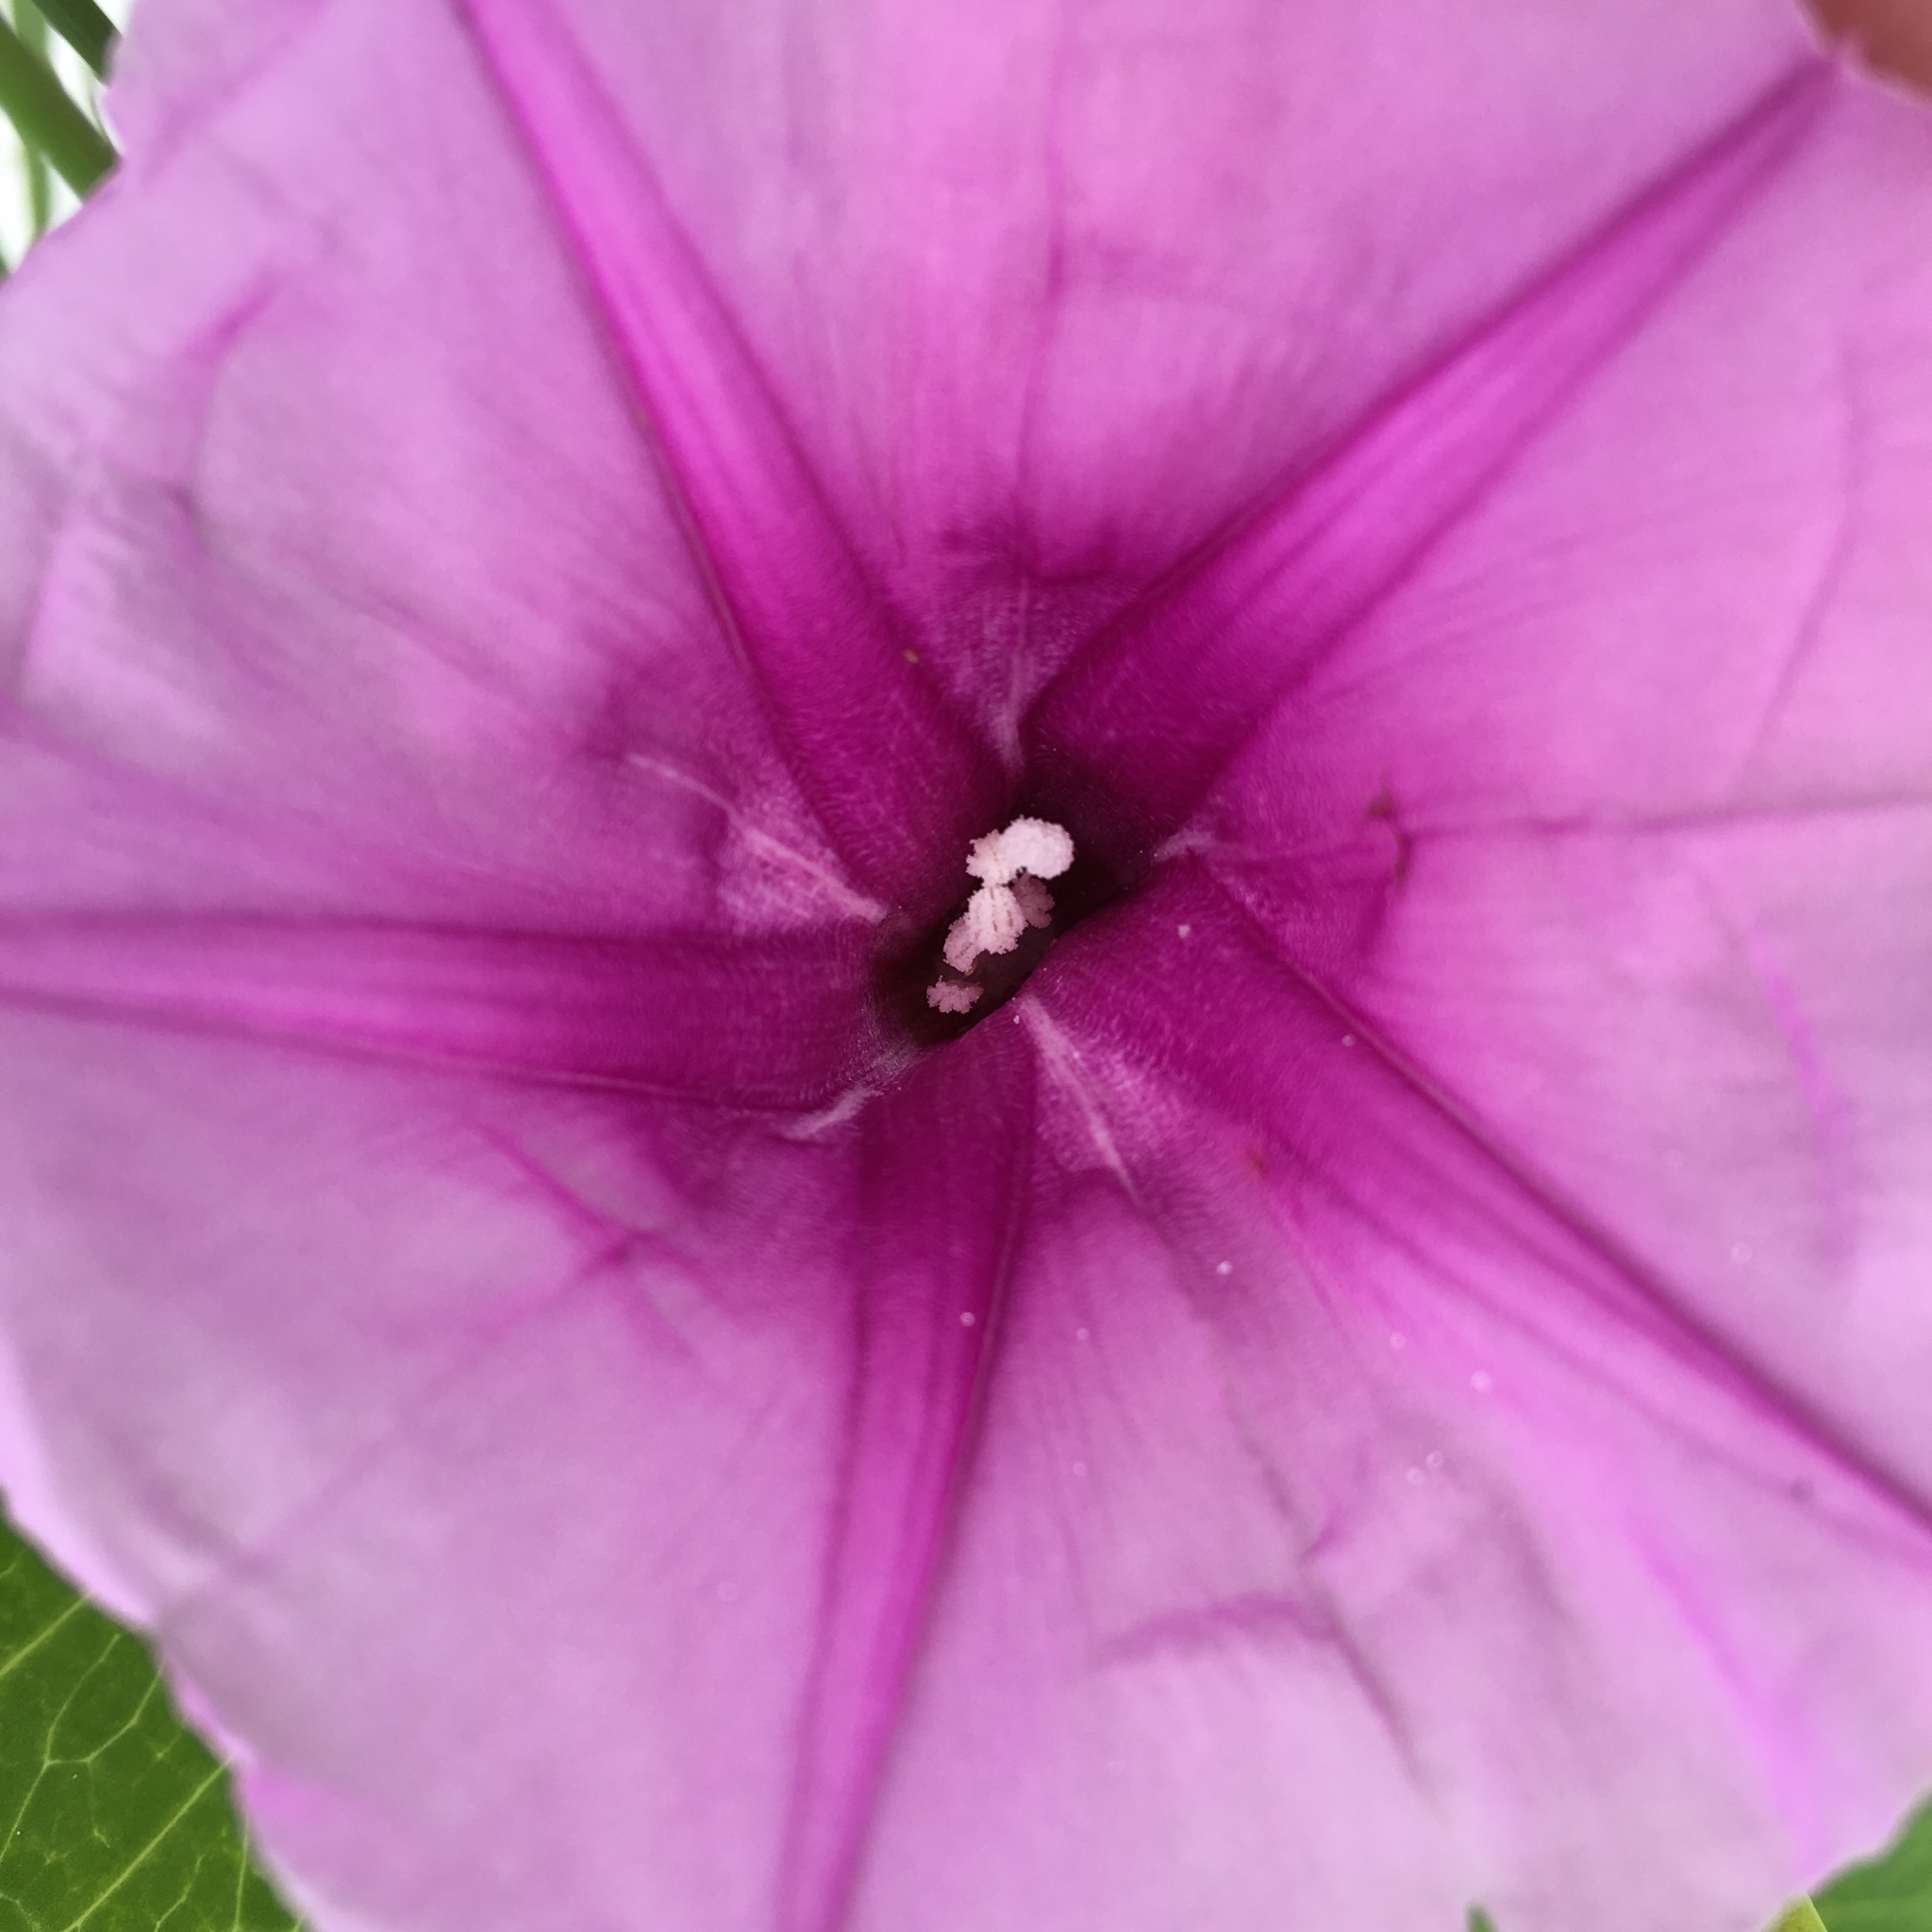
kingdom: Plantae
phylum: Tracheophyta
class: Magnoliopsida
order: Solanales
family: Convolvulaceae
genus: Ipomoea
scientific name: Ipomoea pes-caprae
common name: Beach morning glory
